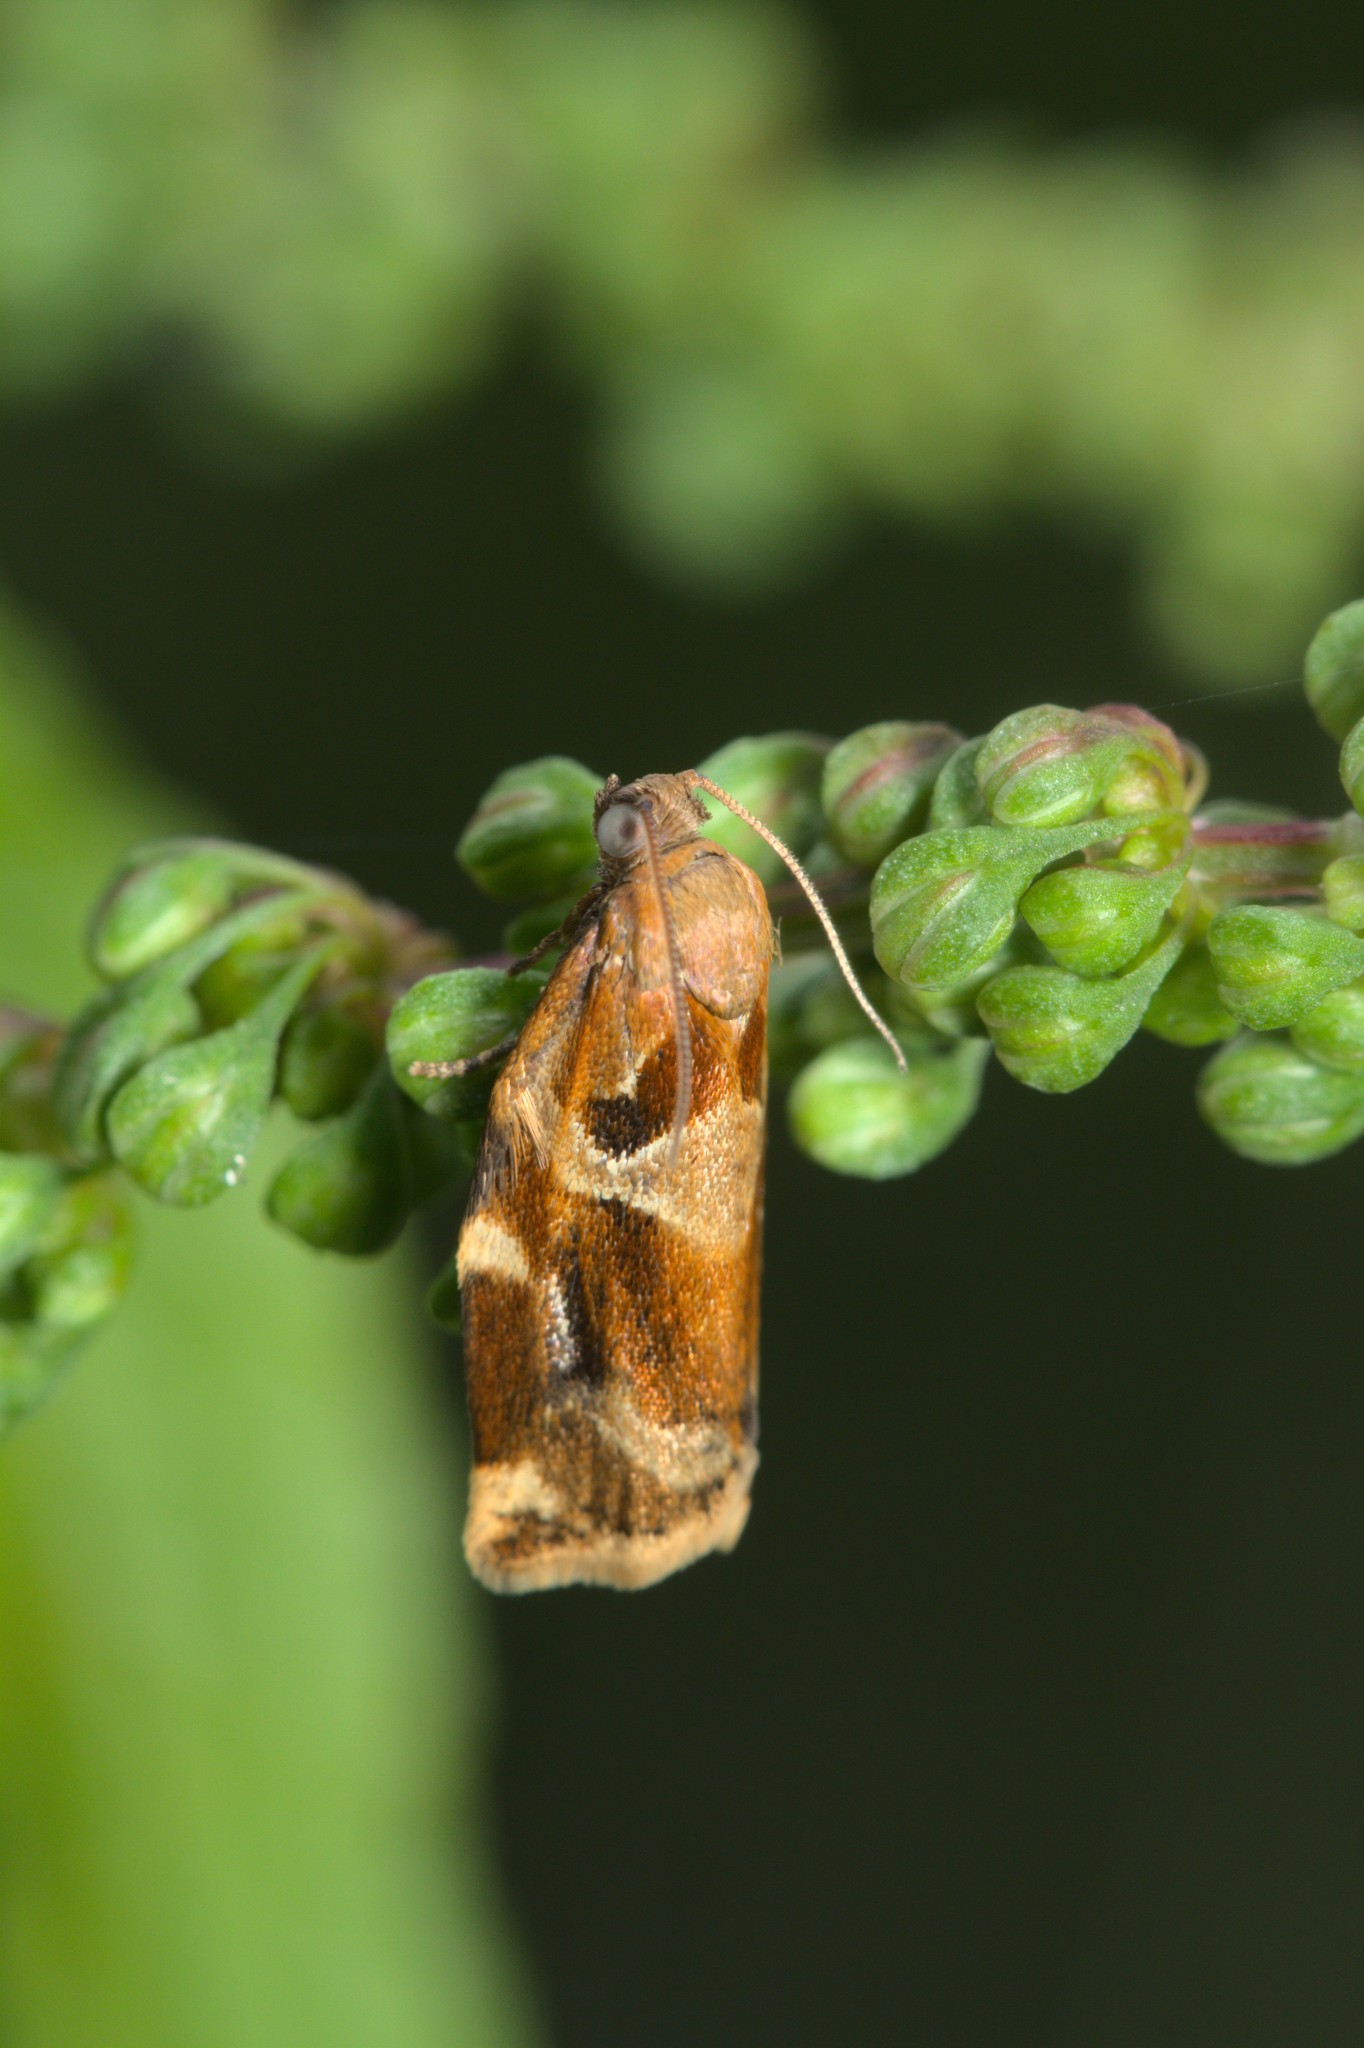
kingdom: Animalia
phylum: Arthropoda
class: Insecta
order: Lepidoptera
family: Tortricidae
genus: Archips
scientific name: Archips xylosteana
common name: Variegated golden tortrix
